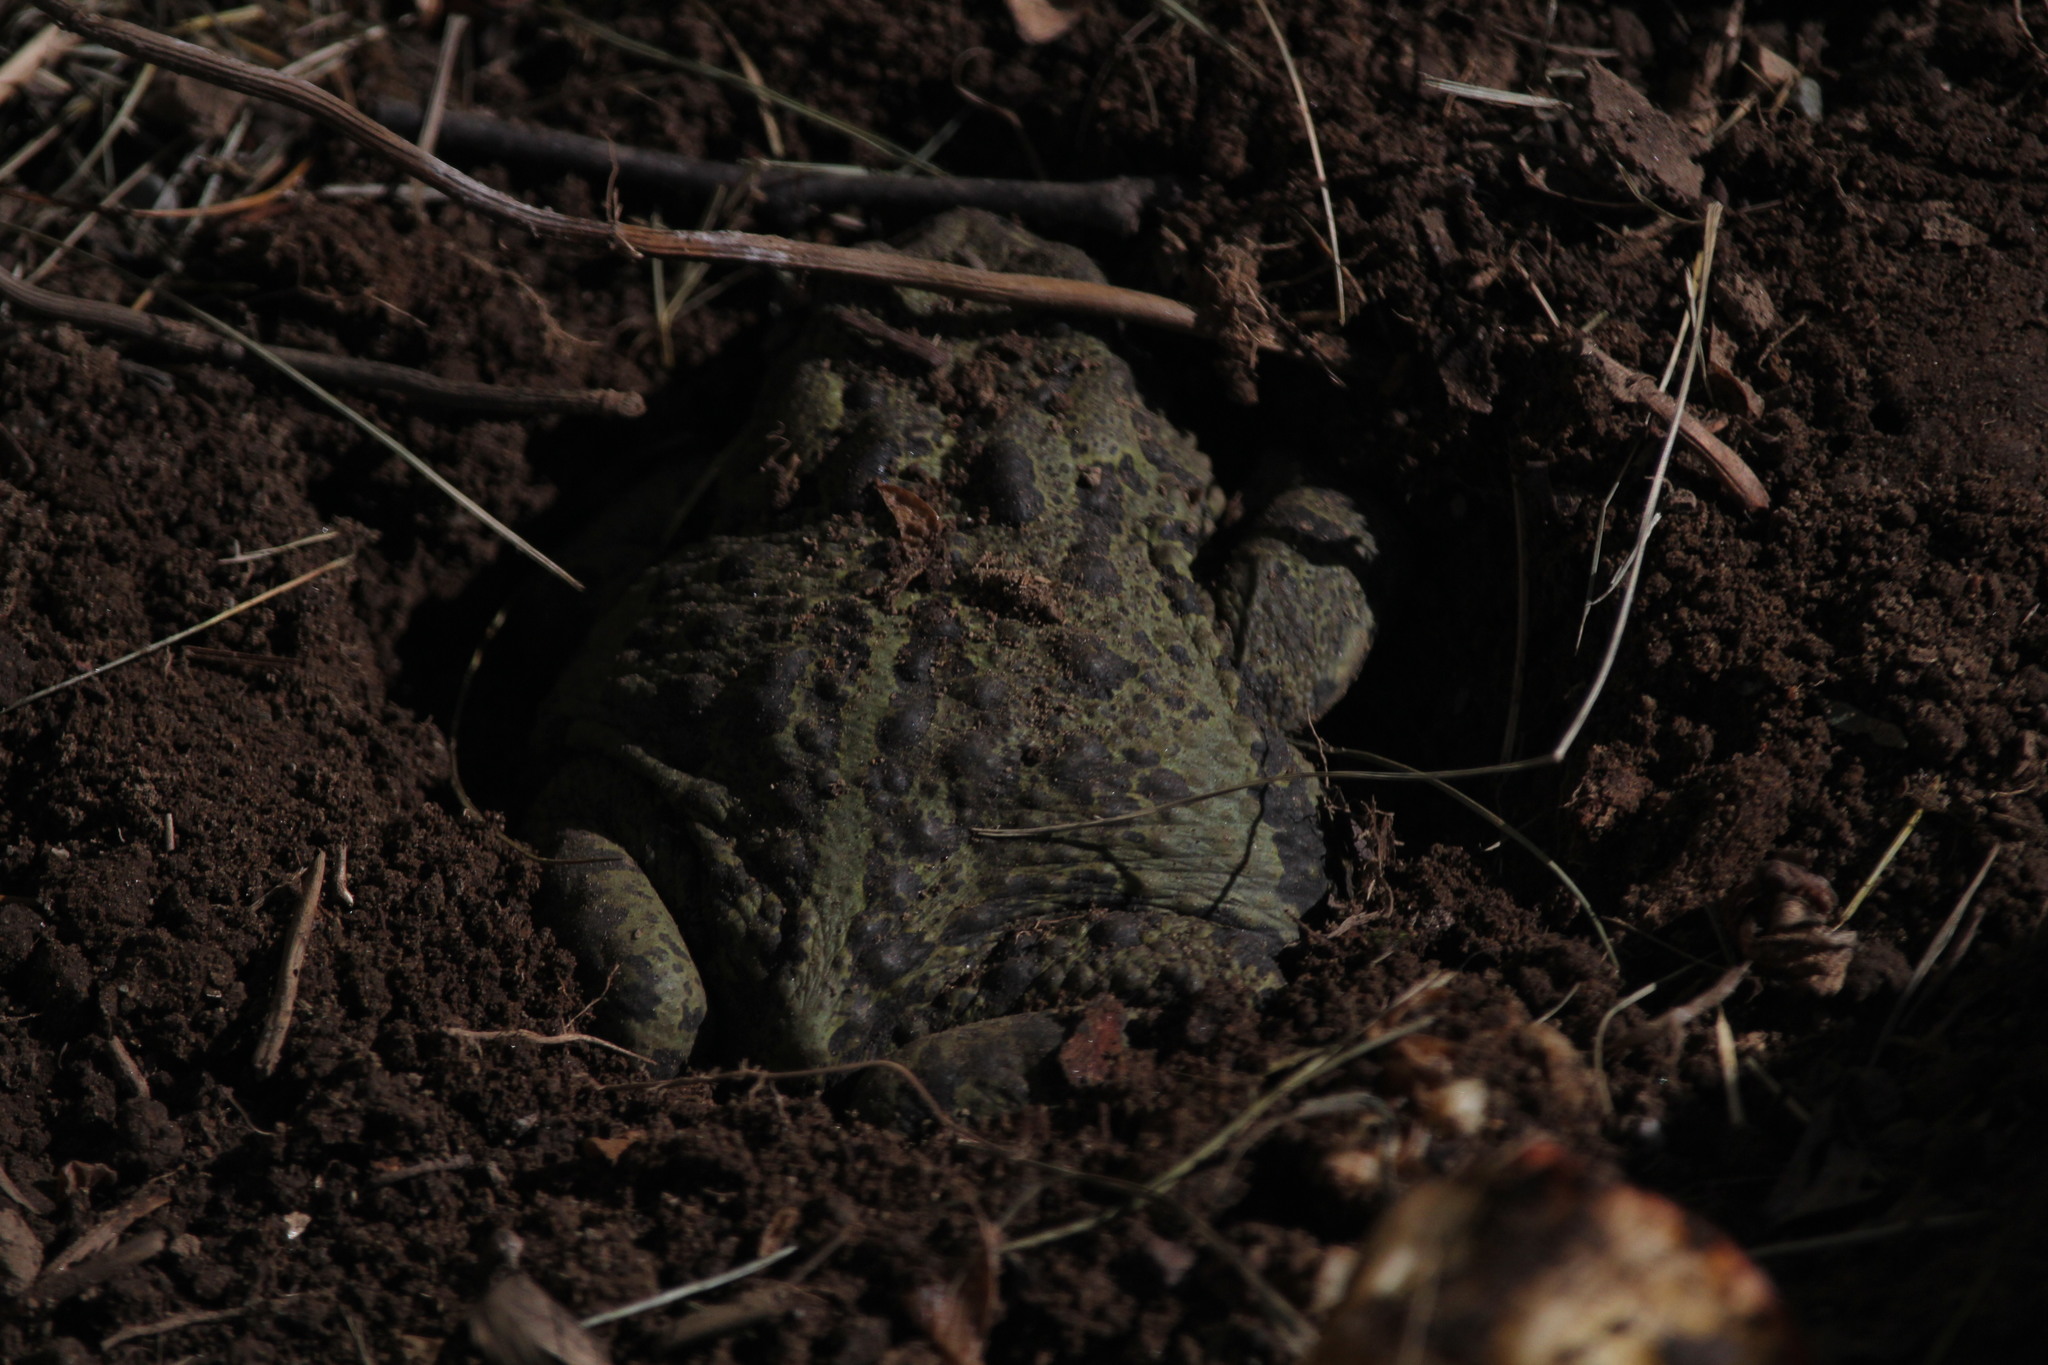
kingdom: Animalia
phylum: Chordata
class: Amphibia
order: Anura
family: Bufonidae
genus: Anaxyrus
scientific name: Anaxyrus boreas
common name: Western toad
